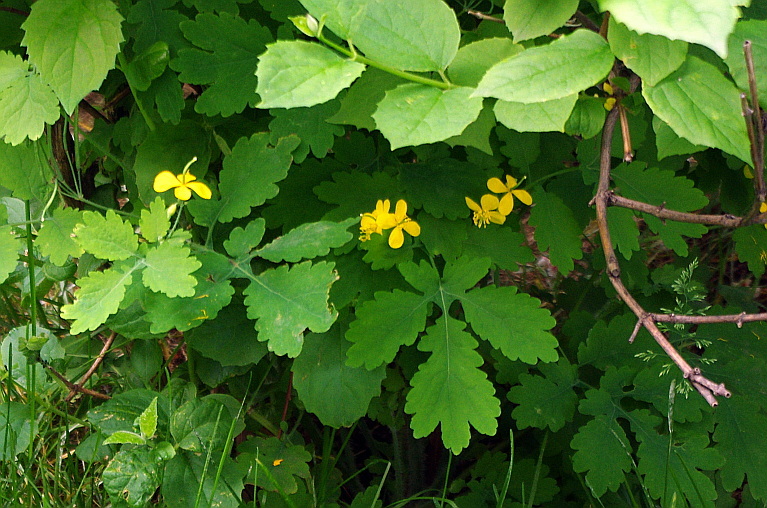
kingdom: Plantae
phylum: Tracheophyta
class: Magnoliopsida
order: Ranunculales
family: Papaveraceae
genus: Chelidonium
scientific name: Chelidonium majus
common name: Greater celandine
